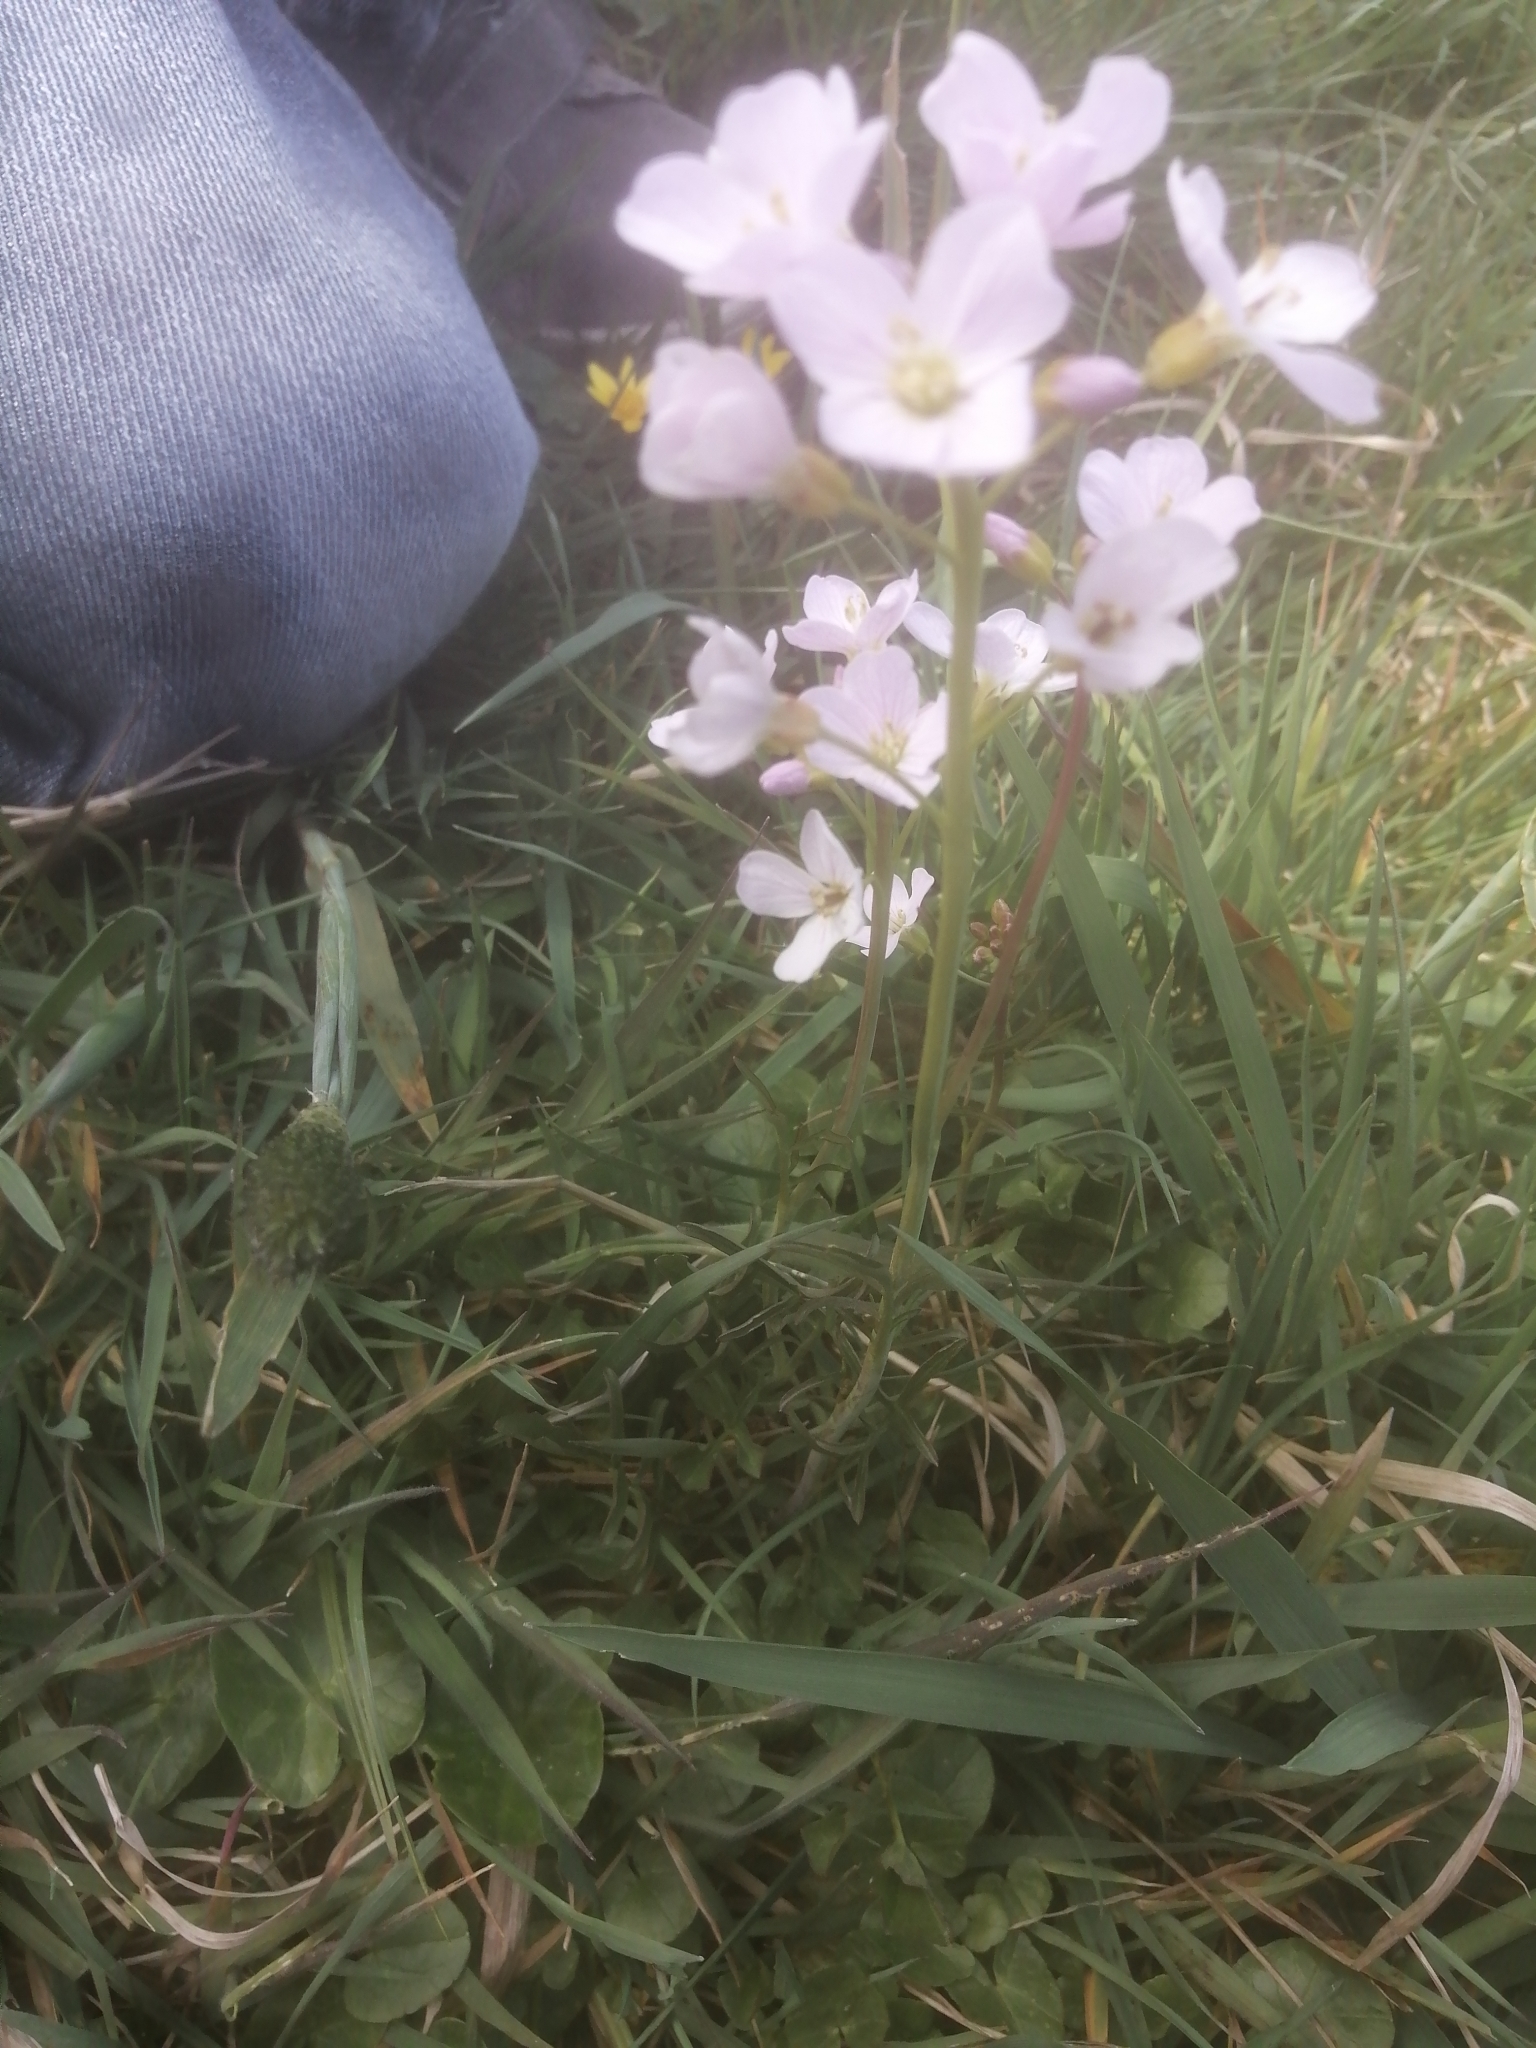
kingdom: Plantae
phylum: Tracheophyta
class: Magnoliopsida
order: Brassicales
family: Brassicaceae
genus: Cardamine
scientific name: Cardamine pratensis
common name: Cuckoo flower
